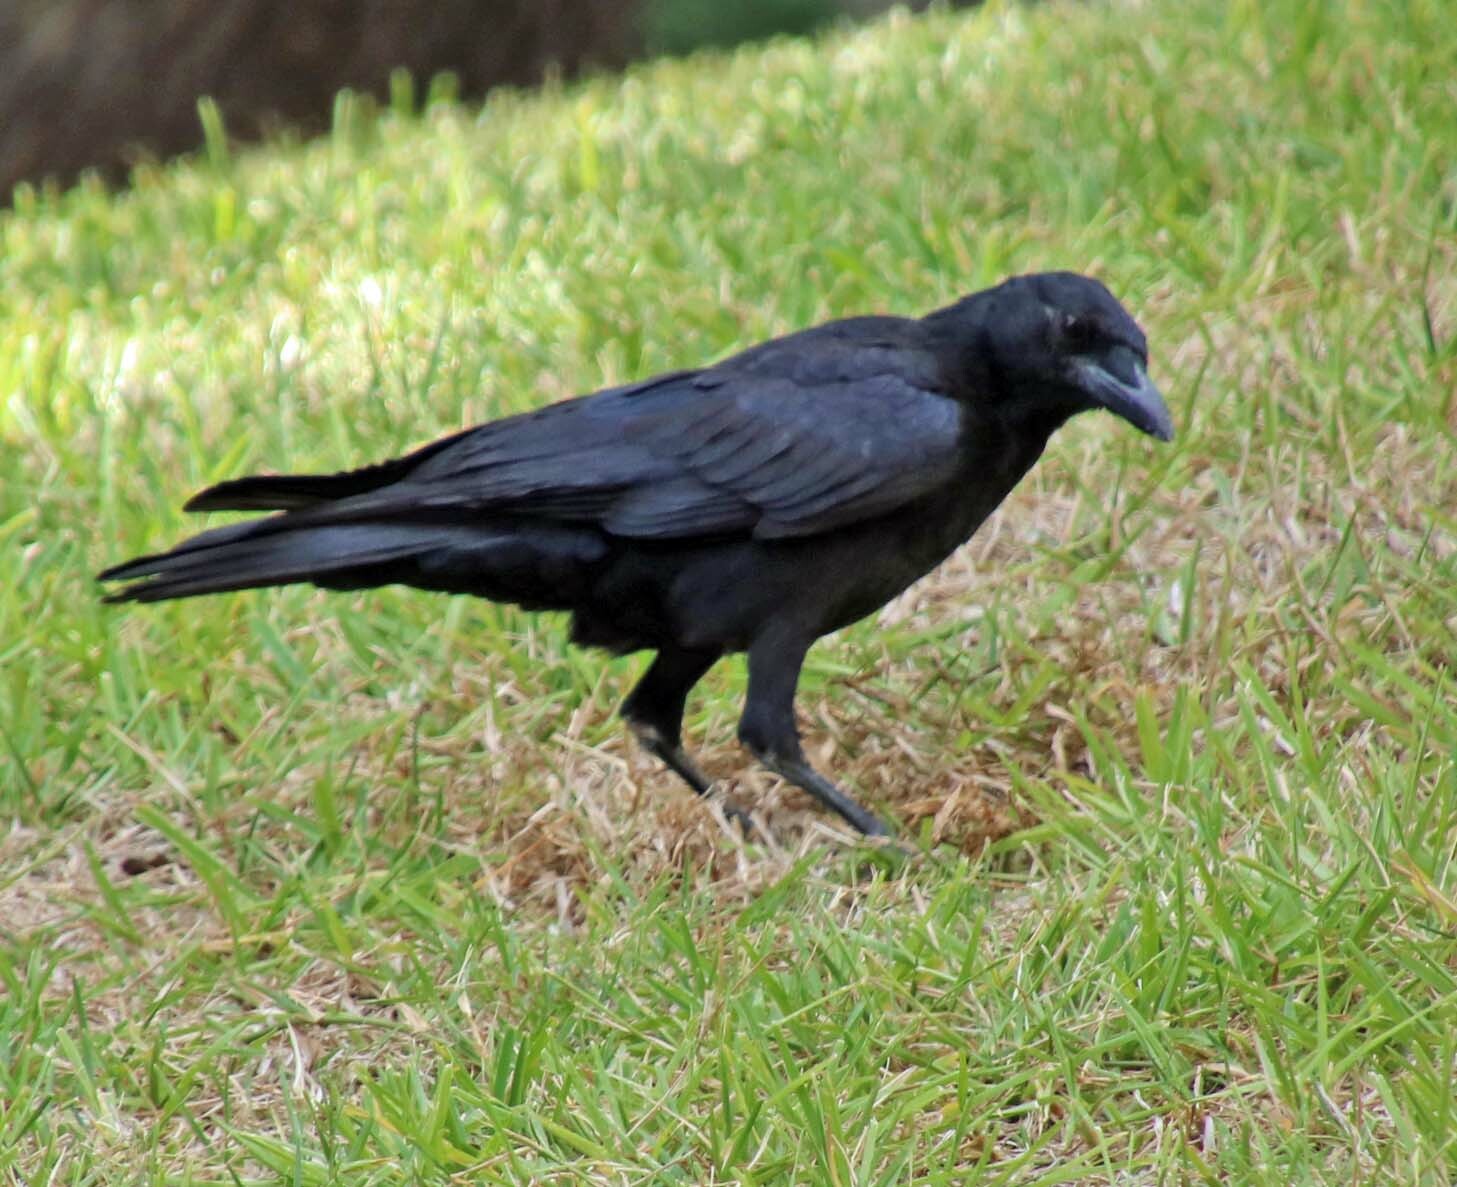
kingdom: Animalia
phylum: Chordata
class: Aves
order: Passeriformes
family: Corvidae
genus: Corvus
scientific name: Corvus brachyrhynchos
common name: American crow
